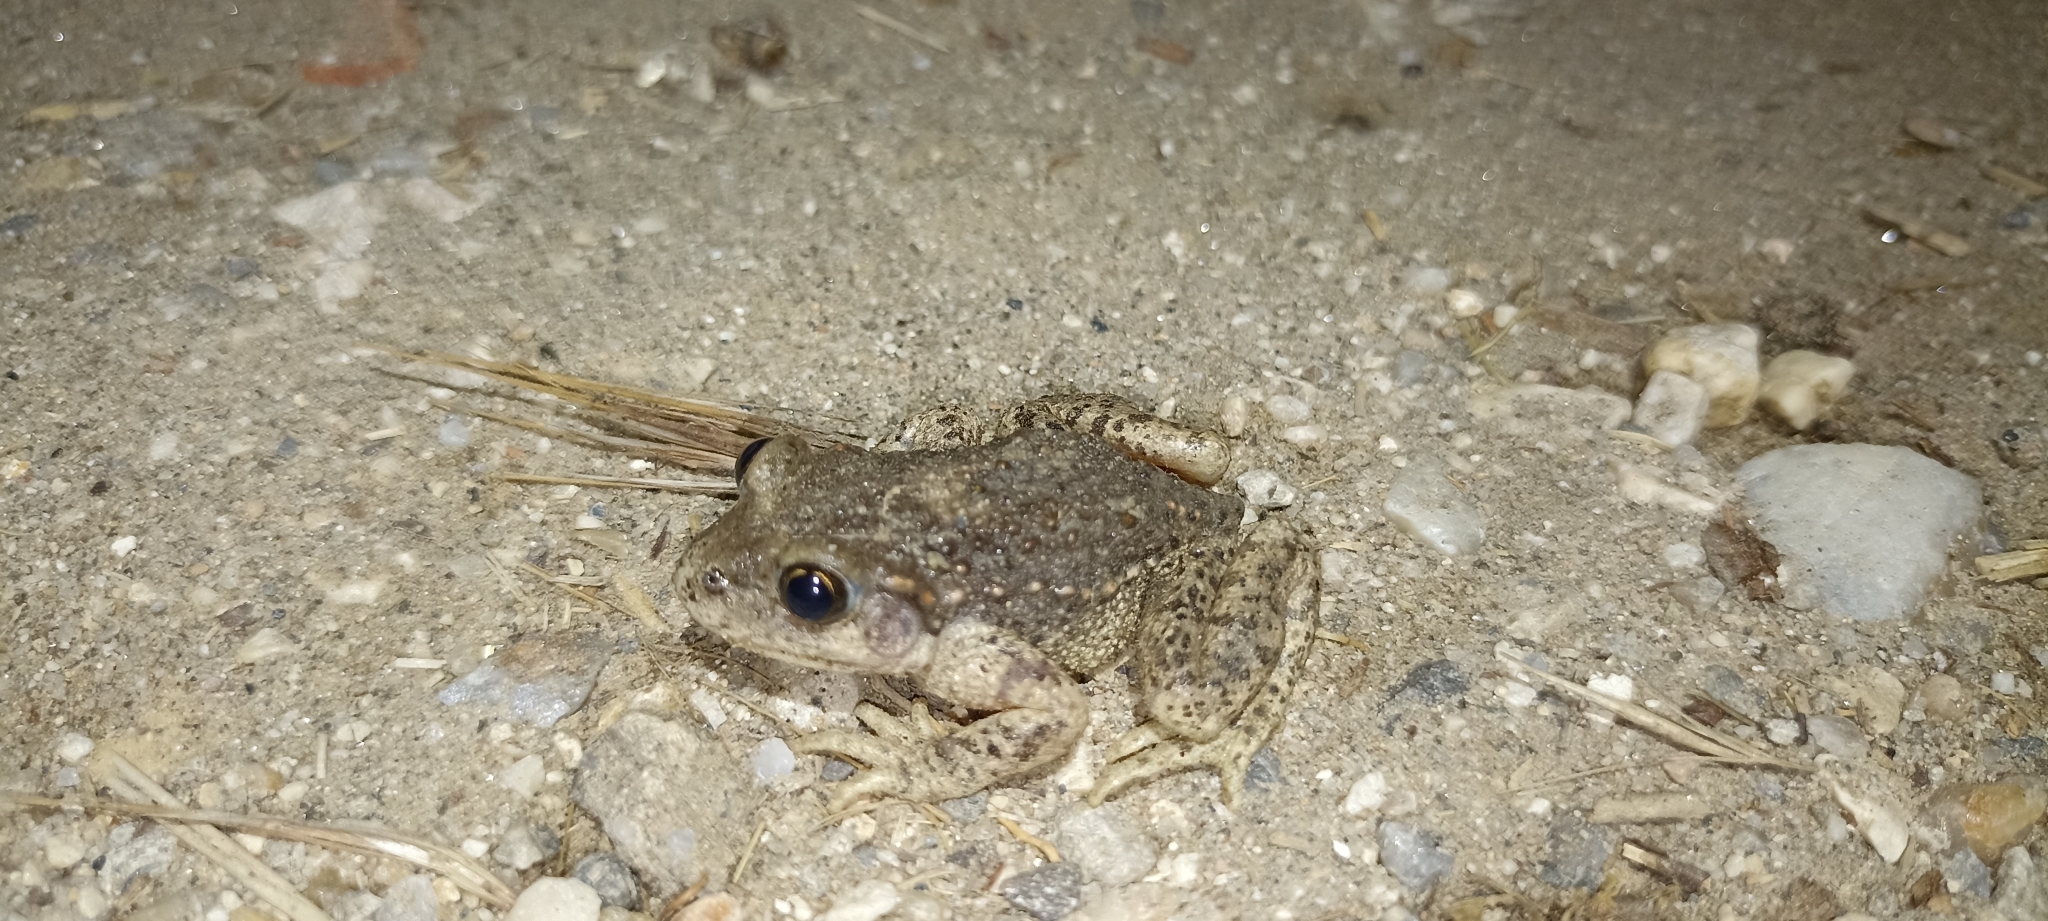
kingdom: Animalia
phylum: Chordata
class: Amphibia
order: Anura
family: Alytidae
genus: Alytes
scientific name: Alytes obstetricans
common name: Midwife toad
